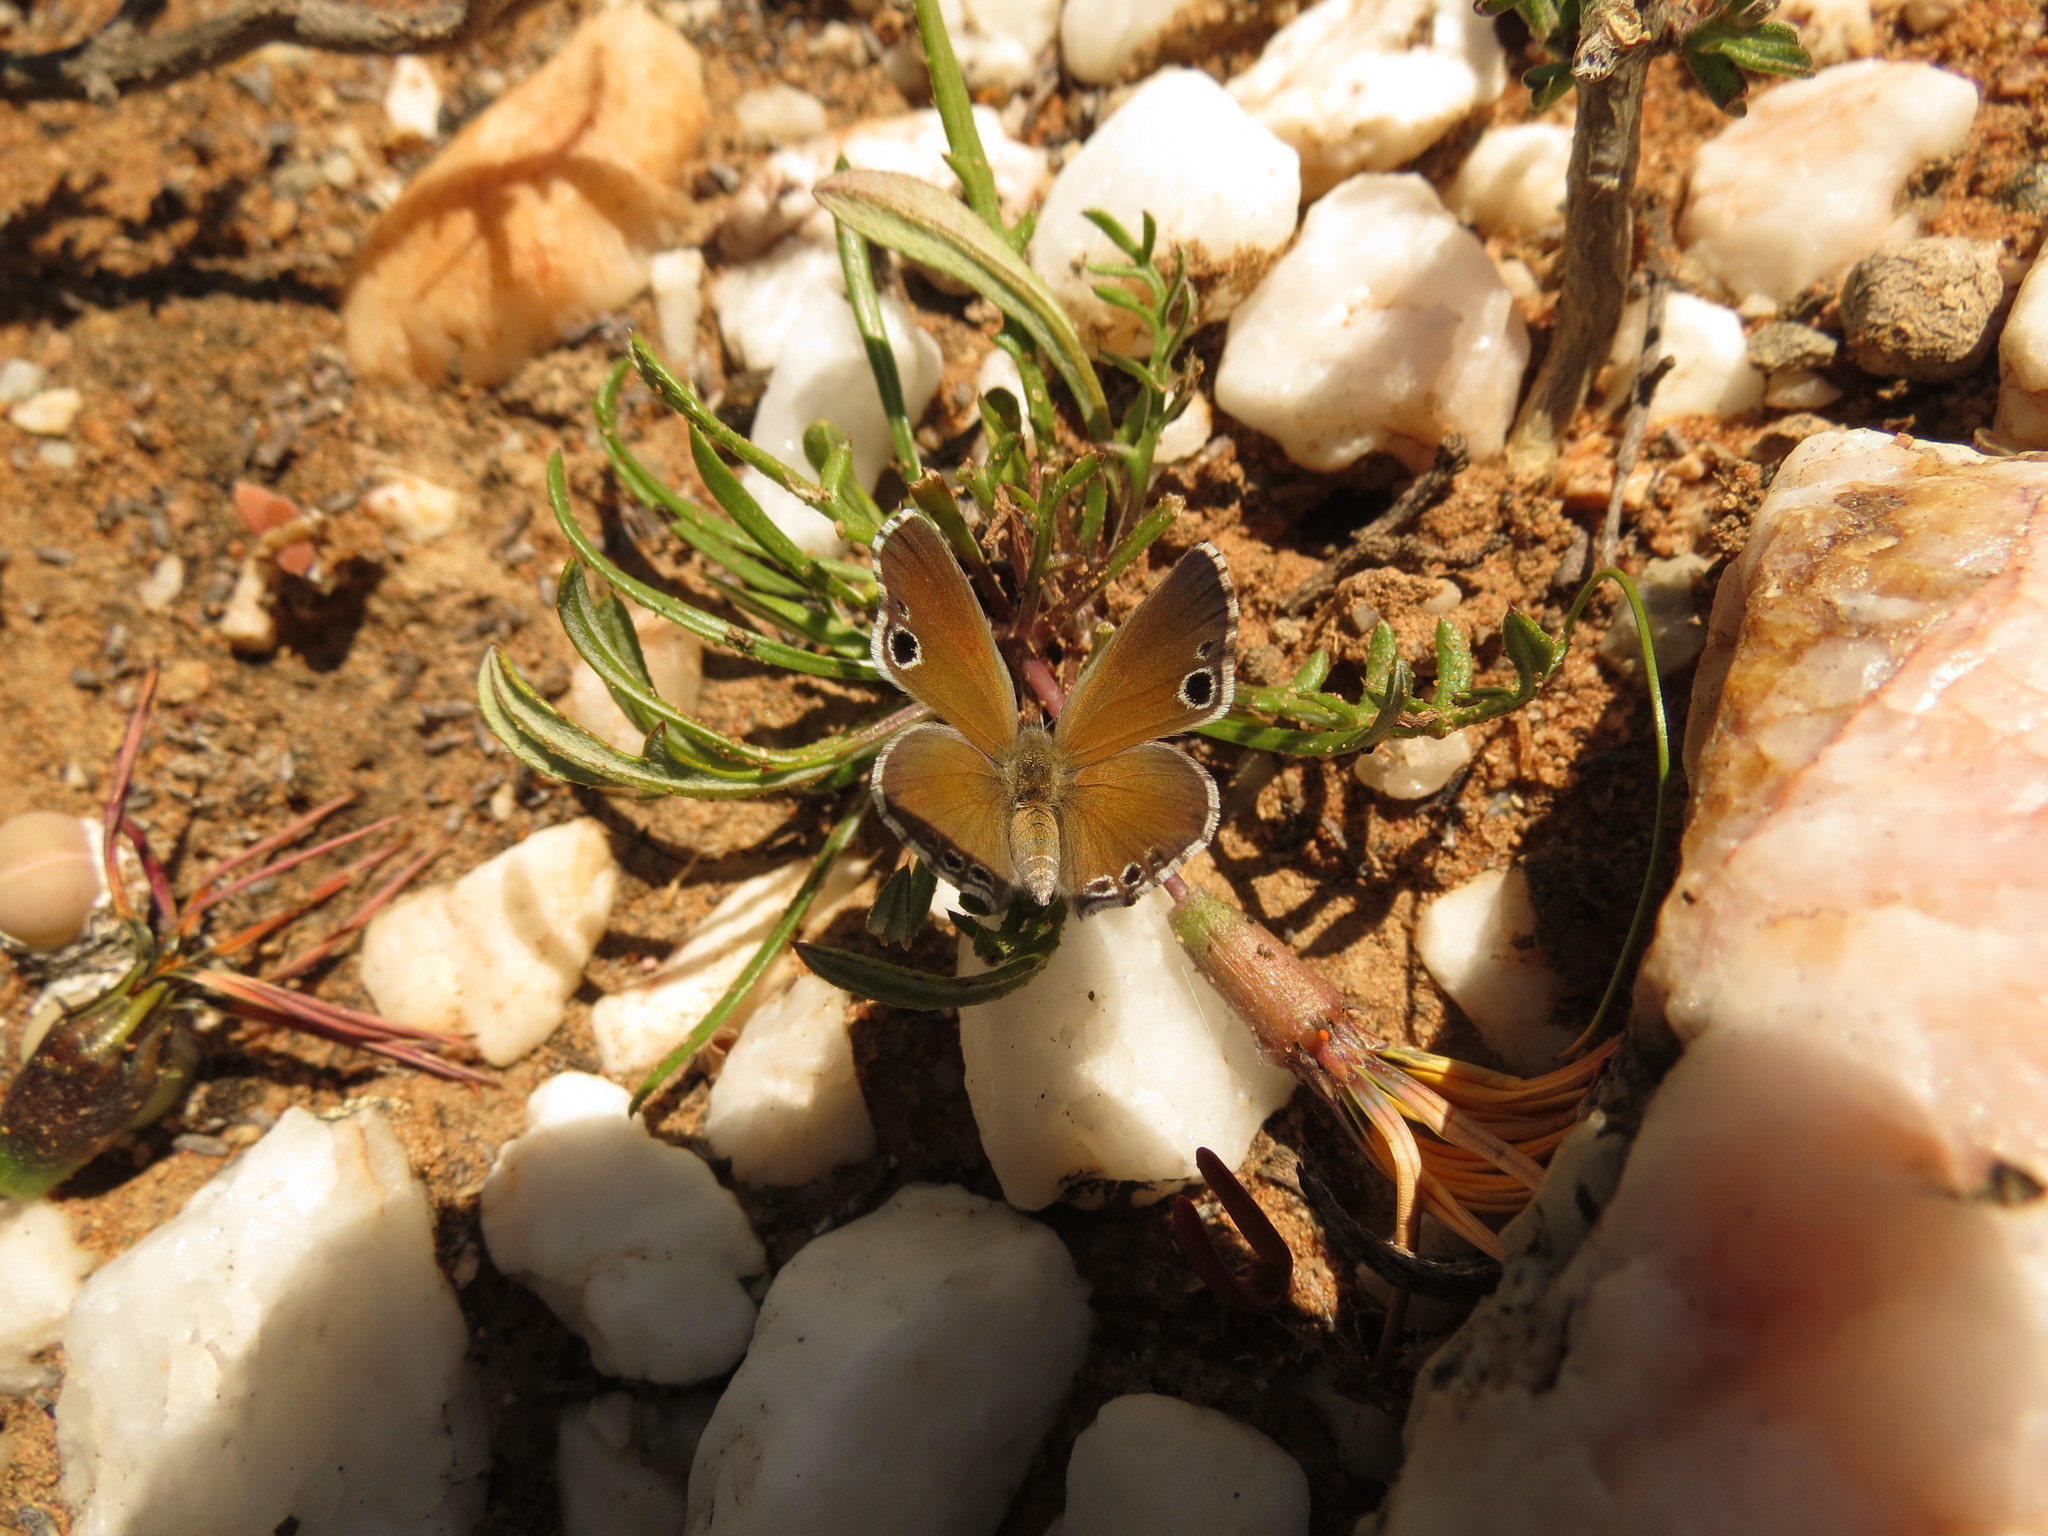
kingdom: Animalia
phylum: Arthropoda
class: Insecta
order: Lepidoptera
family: Lycaenidae
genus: Leptomyrina
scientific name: Leptomyrina lara
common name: Cape black-eye
